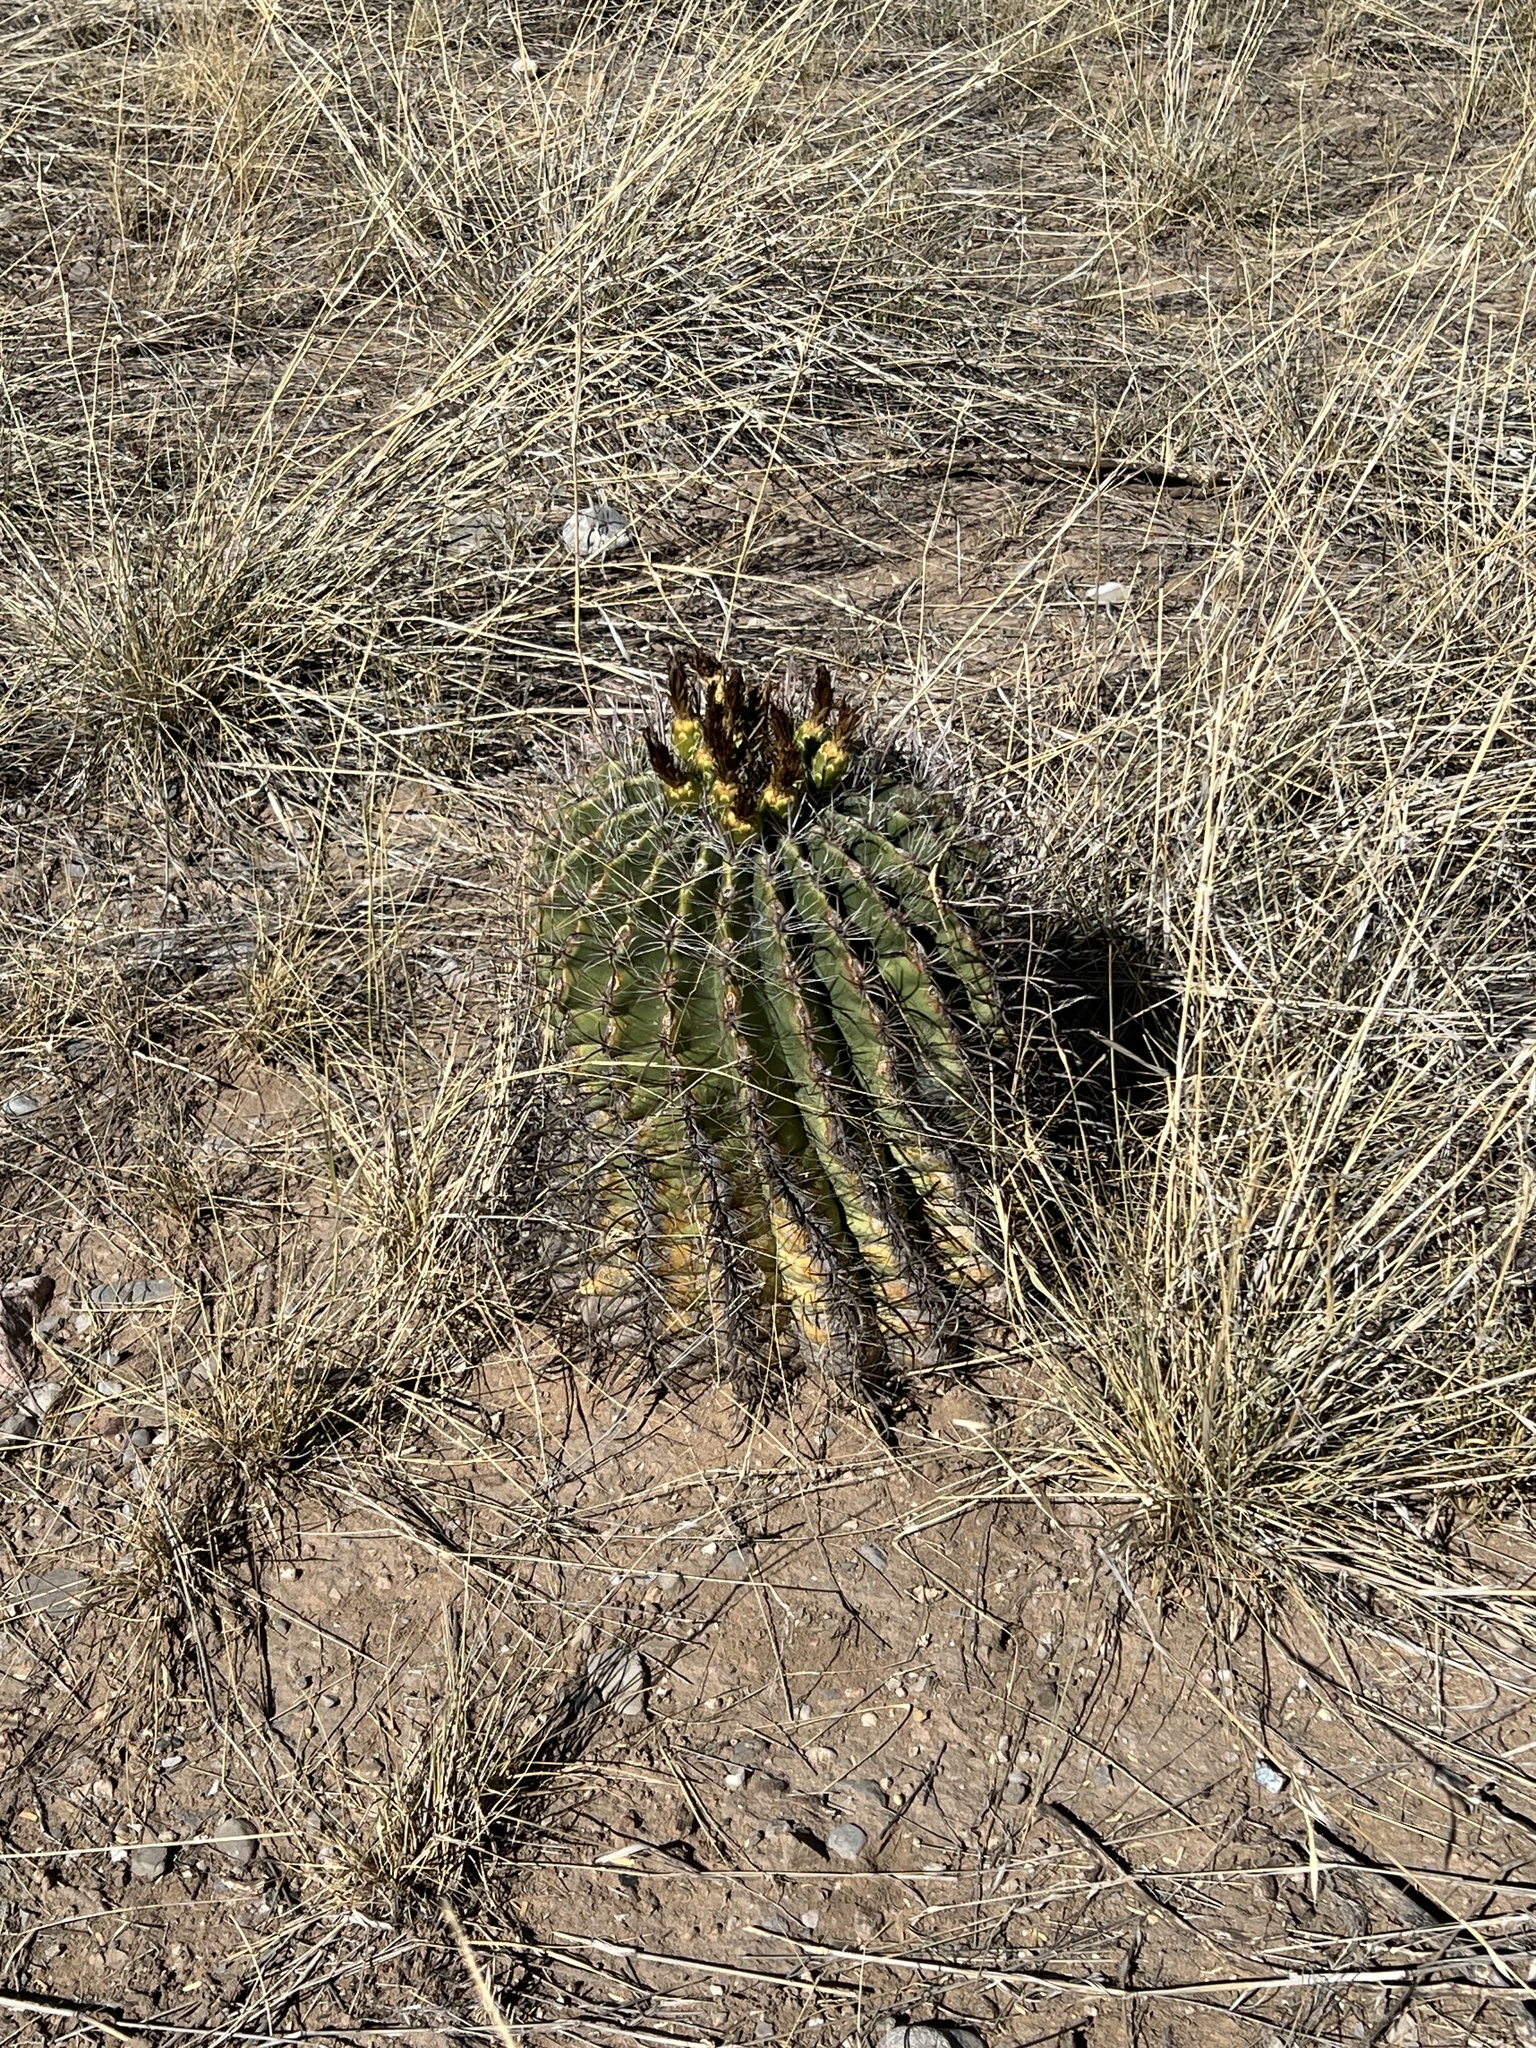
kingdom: Plantae
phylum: Tracheophyta
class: Magnoliopsida
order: Caryophyllales
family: Cactaceae
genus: Ferocactus
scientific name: Ferocactus wislizeni
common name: Candy barrel cactus
